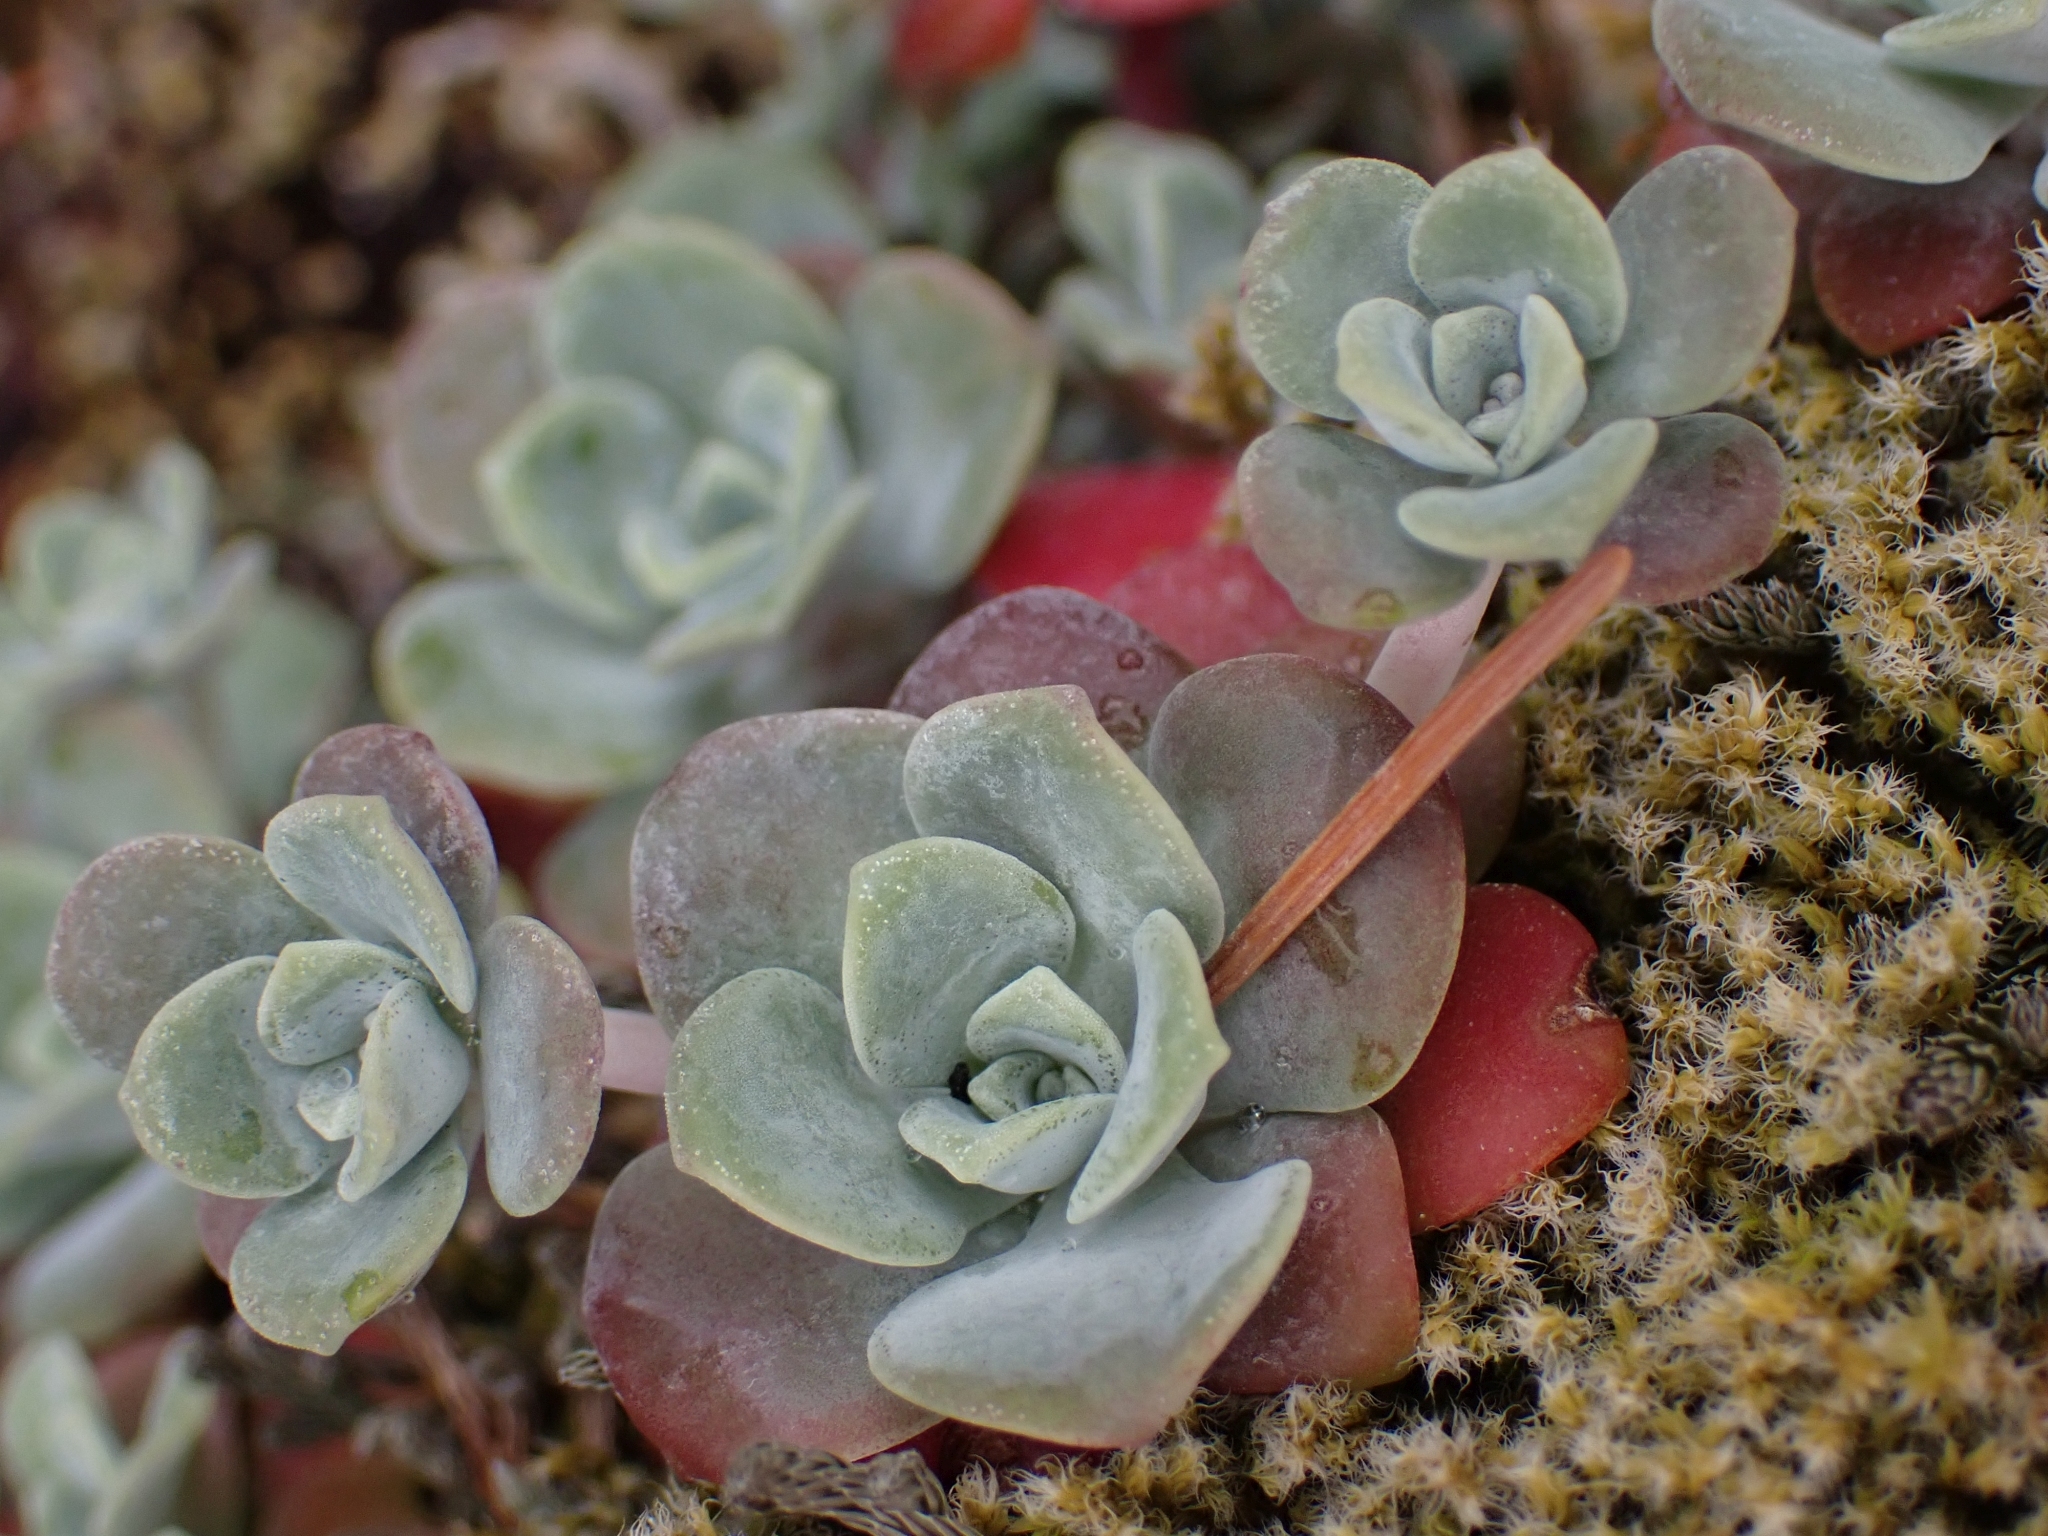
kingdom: Plantae
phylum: Tracheophyta
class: Magnoliopsida
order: Saxifragales
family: Crassulaceae
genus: Sedum
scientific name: Sedum spathulifolium
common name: Colorado stonecrop
